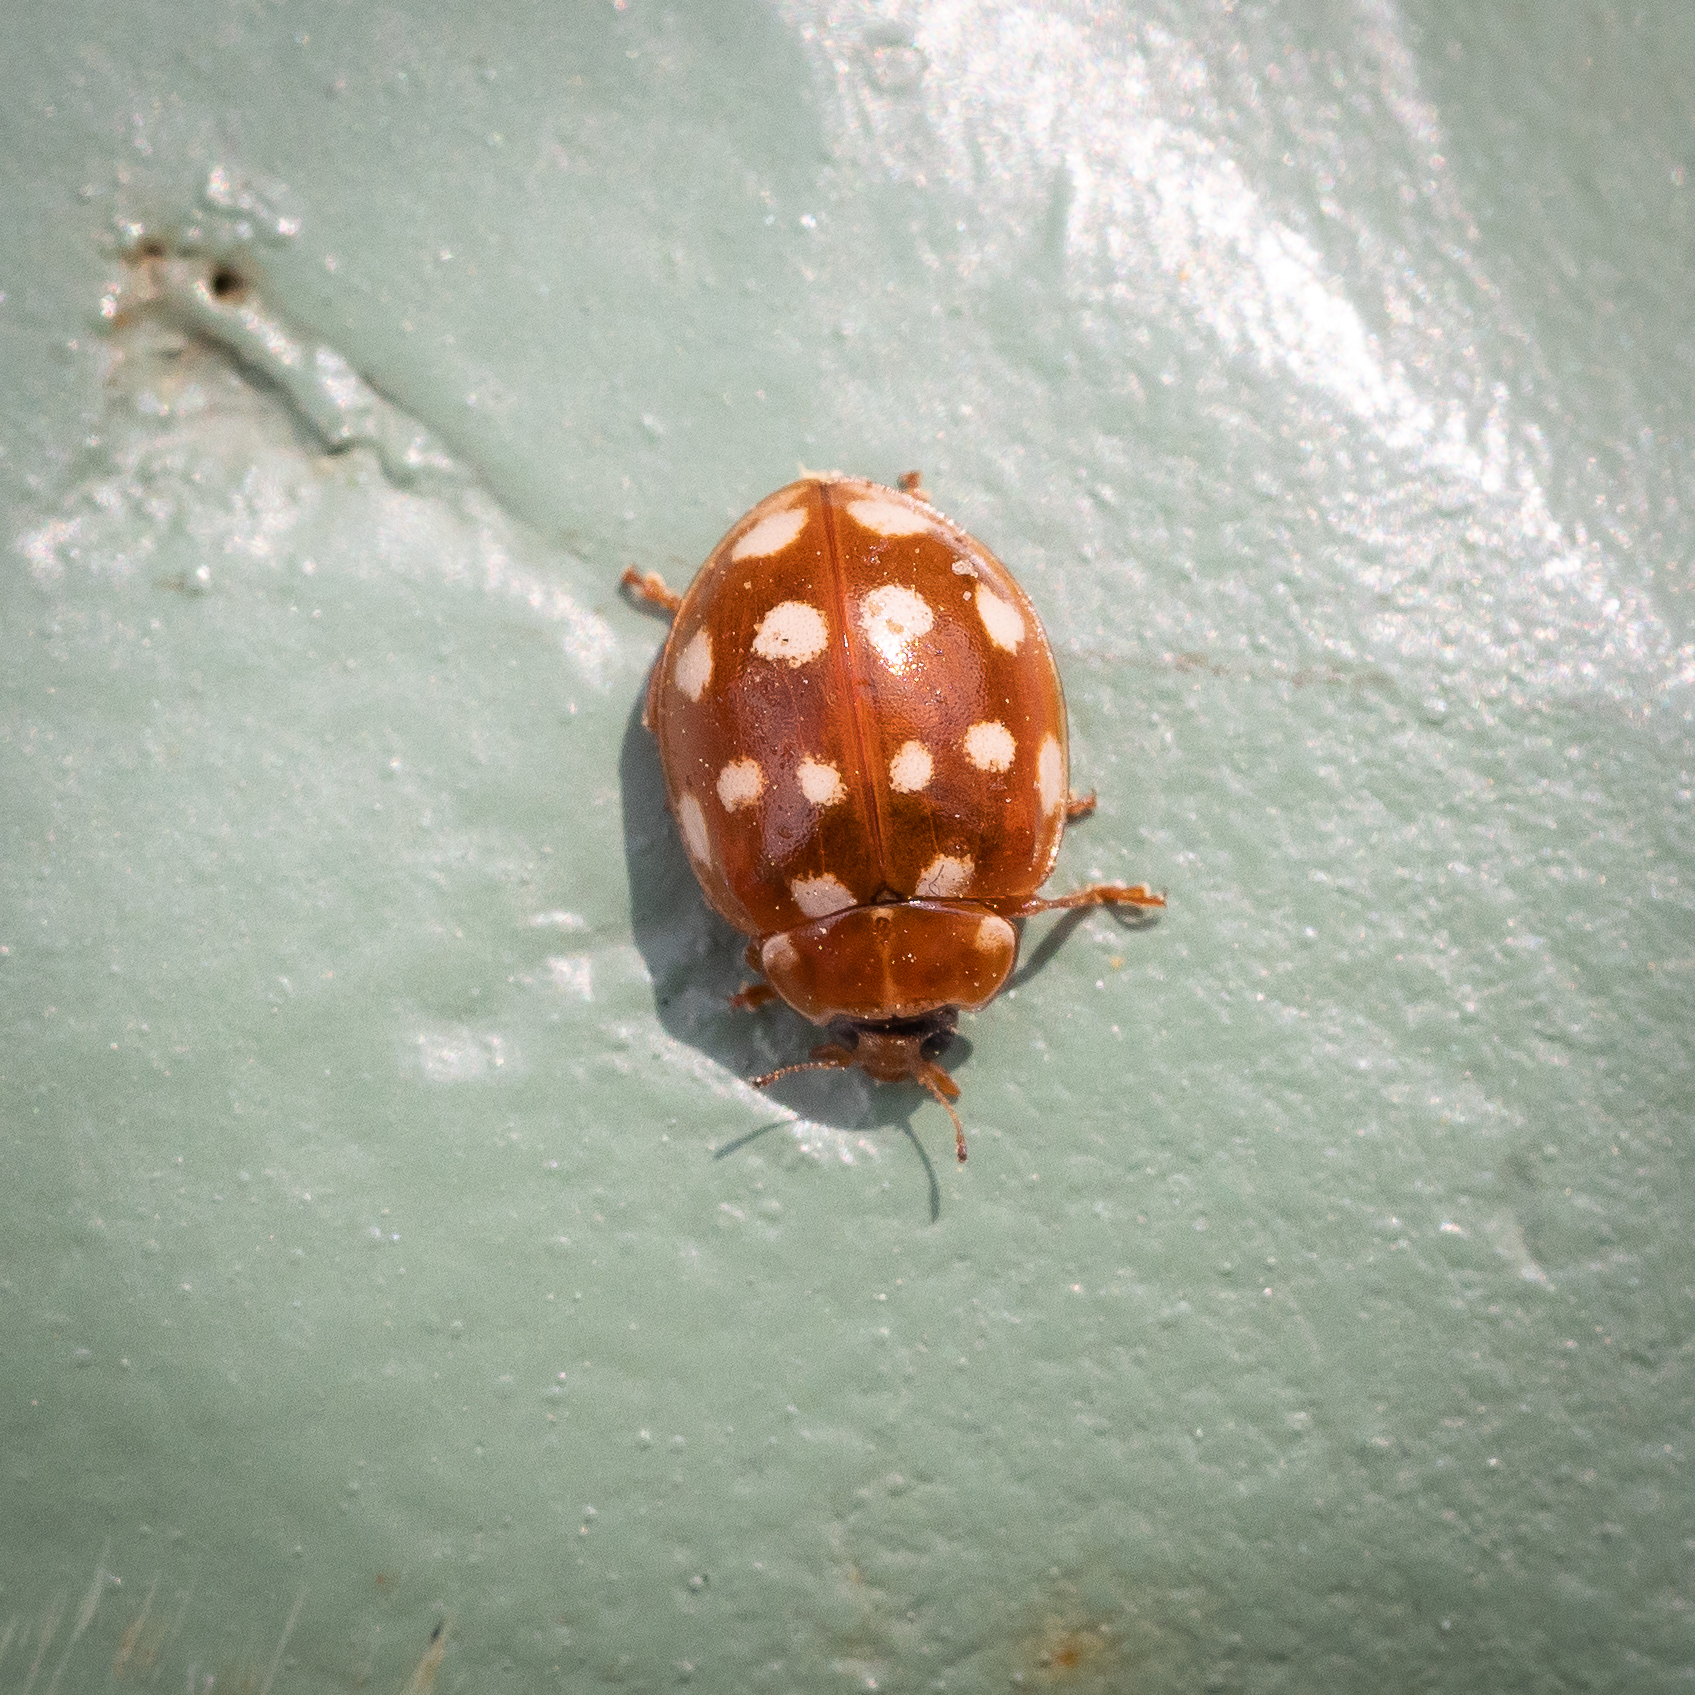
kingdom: Animalia
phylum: Arthropoda
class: Insecta
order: Coleoptera
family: Coccinellidae
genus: Calvia
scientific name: Calvia quatuordecimguttata
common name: Cream-spot ladybird
